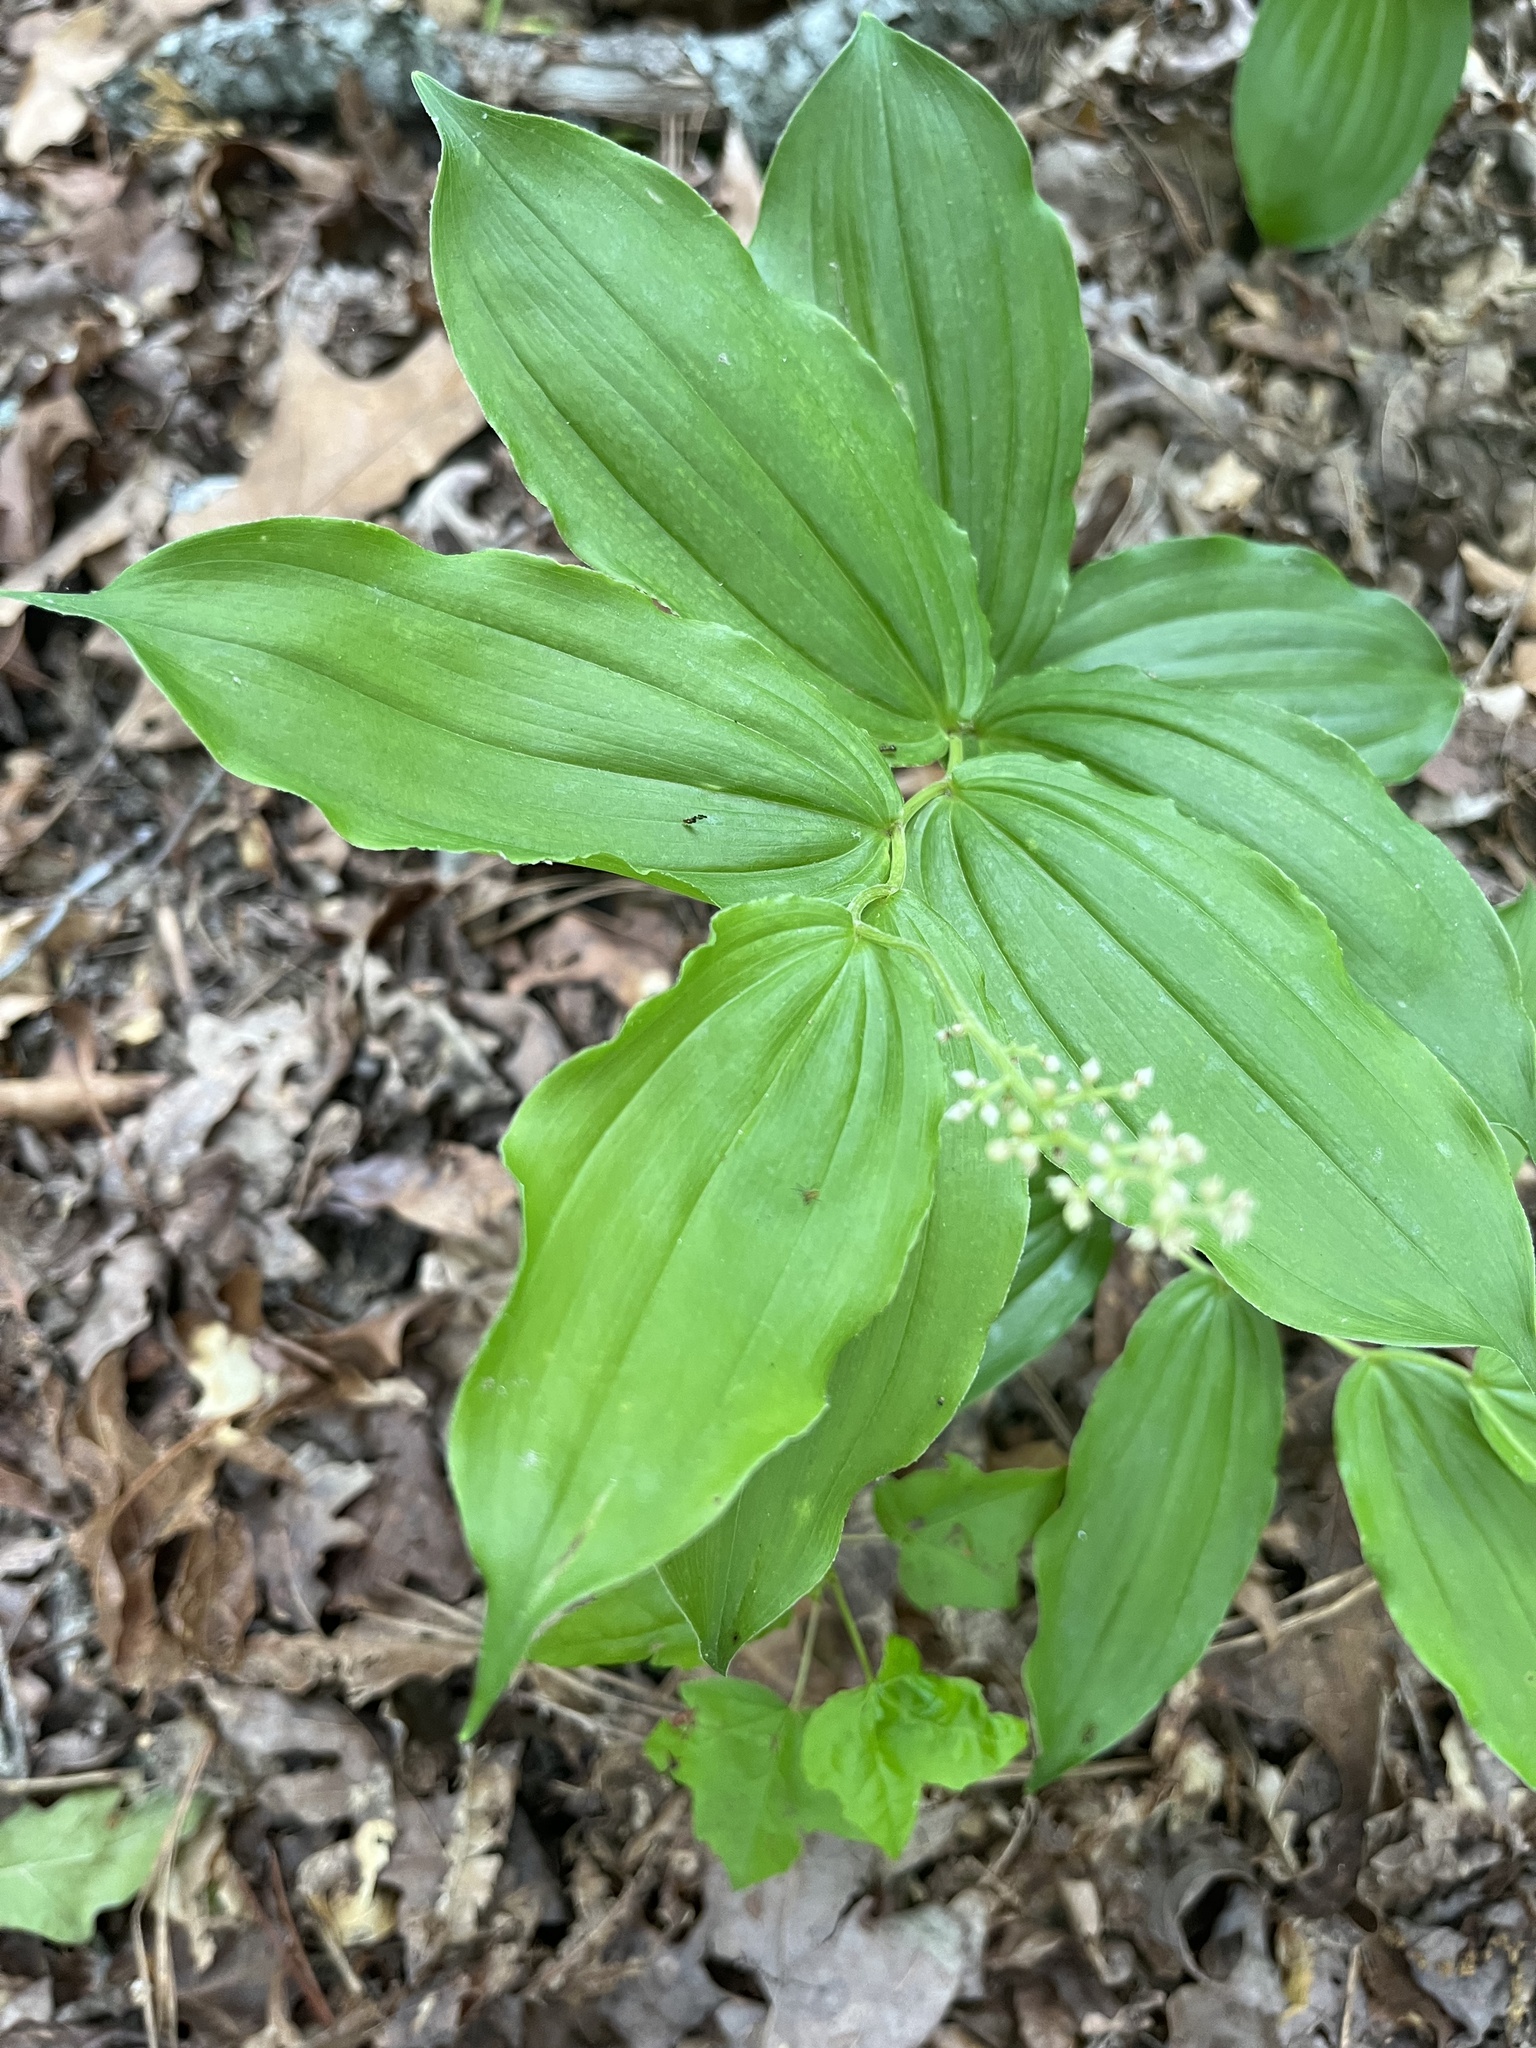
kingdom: Plantae
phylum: Tracheophyta
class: Liliopsida
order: Asparagales
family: Asparagaceae
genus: Maianthemum
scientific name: Maianthemum racemosum
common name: False spikenard
